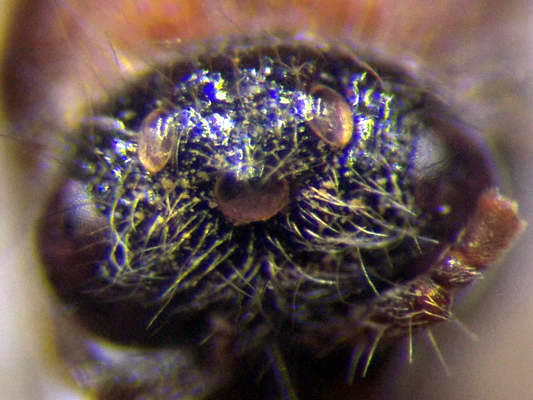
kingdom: Animalia
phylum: Arthropoda
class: Insecta
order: Hymenoptera
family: Mutillidae
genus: Smicromyrme
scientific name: Smicromyrme rufipes
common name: Small velvet ant
